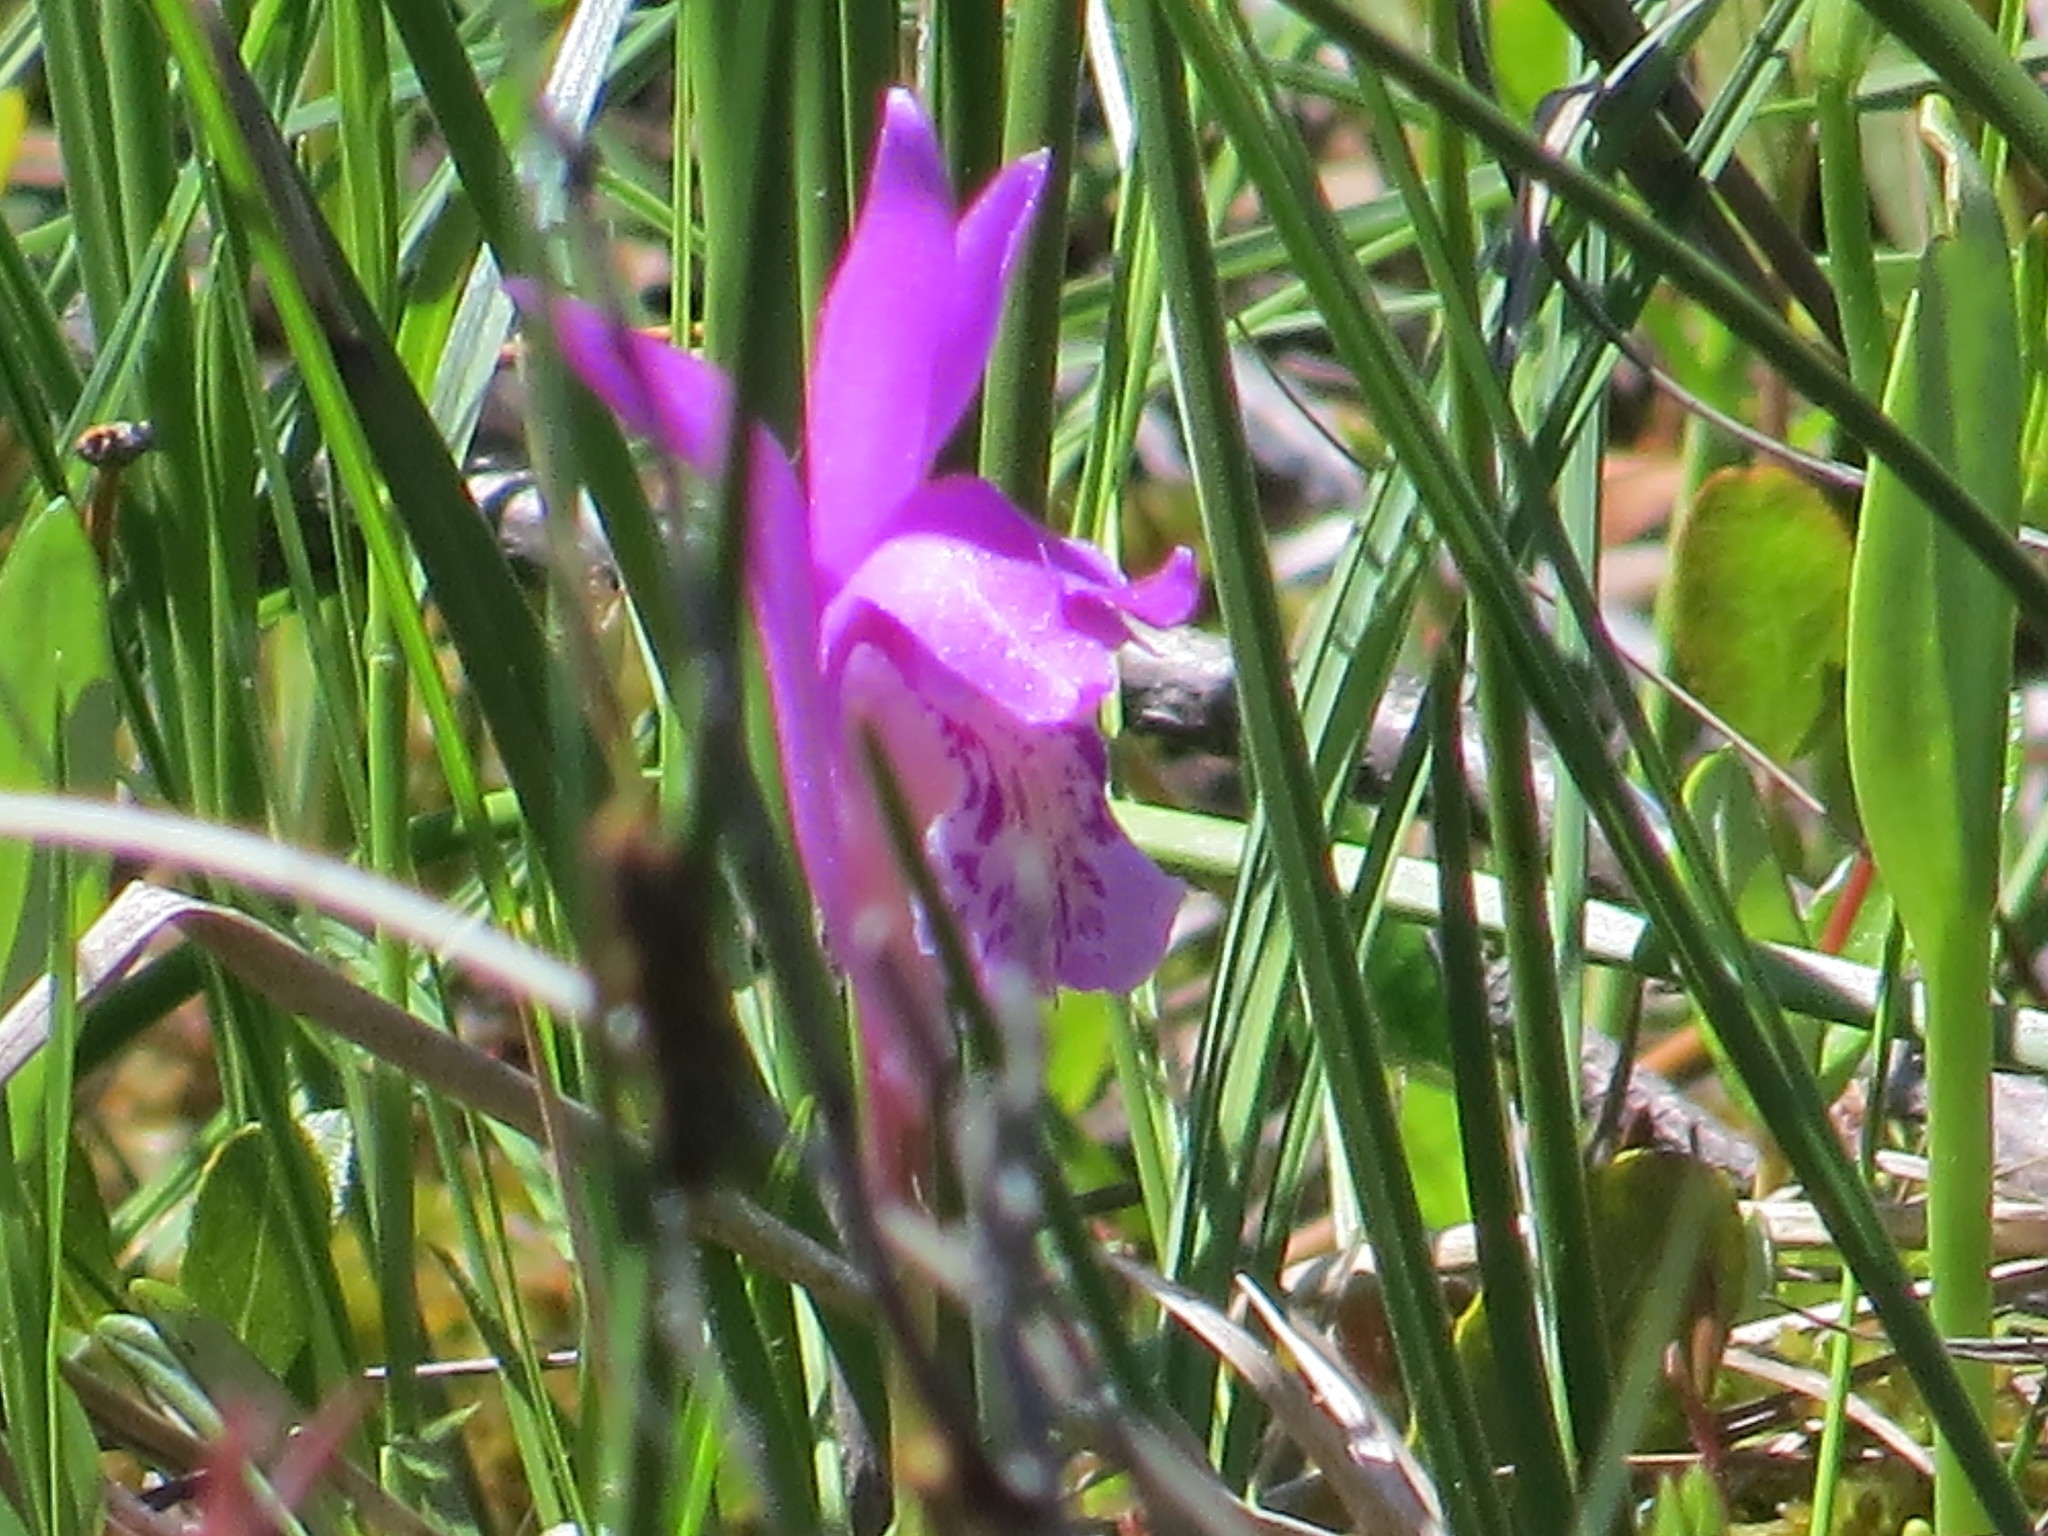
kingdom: Plantae
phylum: Tracheophyta
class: Liliopsida
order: Asparagales
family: Orchidaceae
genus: Arethusa
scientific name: Arethusa bulbosa
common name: Arethusa
